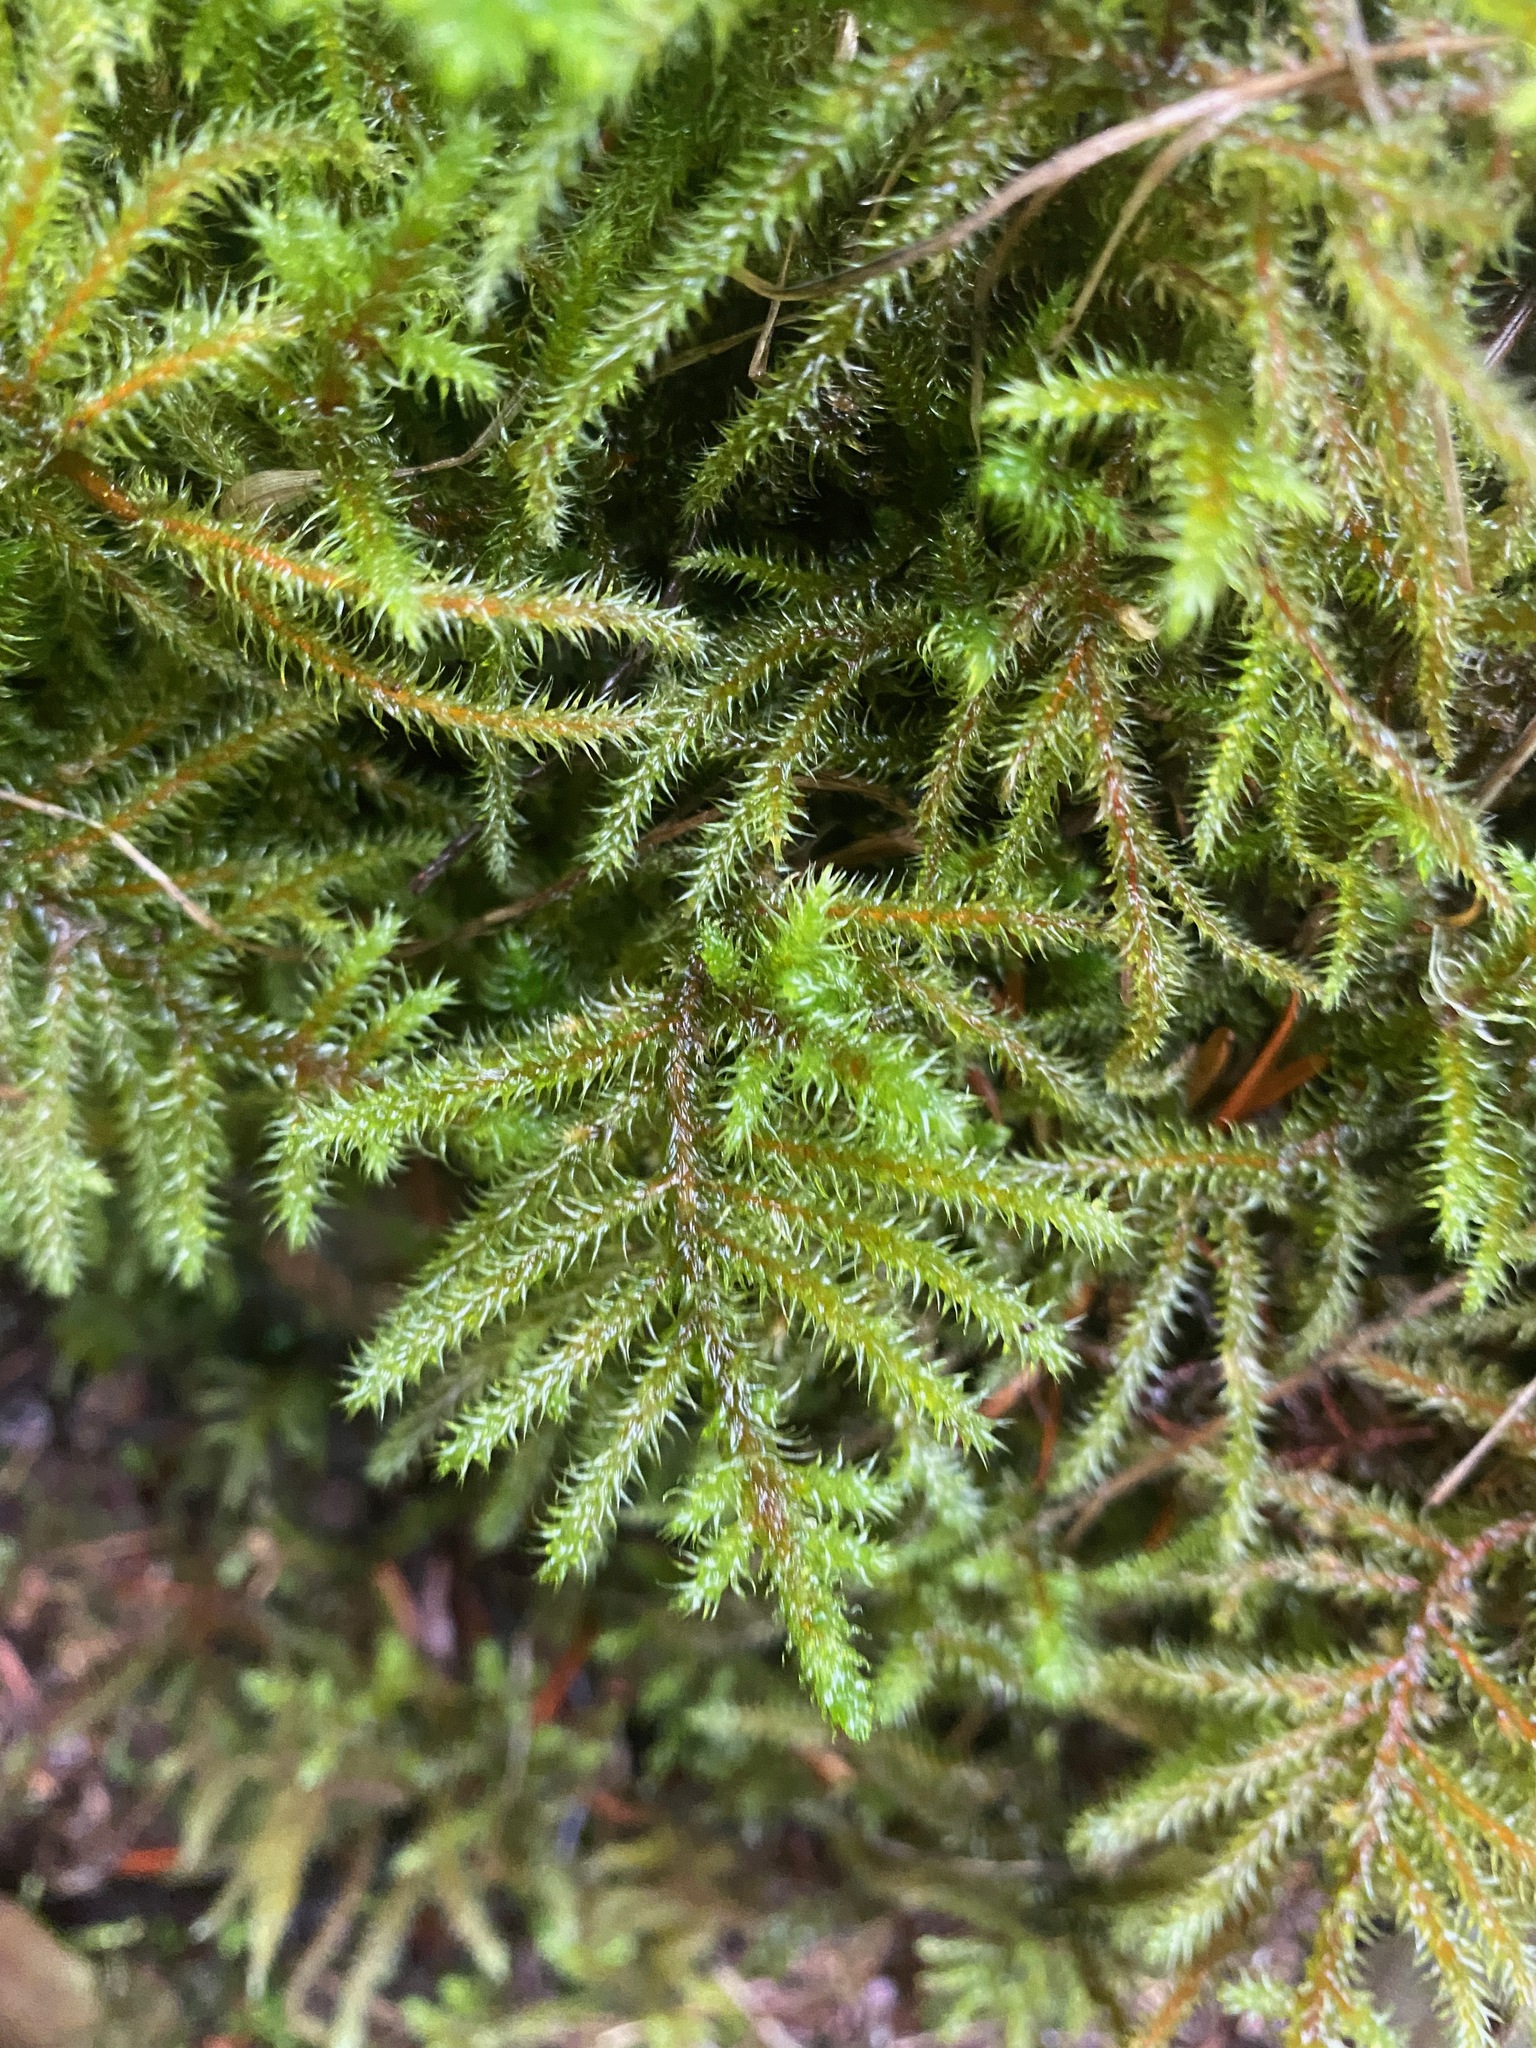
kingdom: Plantae
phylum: Bryophyta
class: Bryopsida
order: Hypnales
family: Hylocomiaceae
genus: Rhytidiadelphus
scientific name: Rhytidiadelphus loreus
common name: Lanky moss
